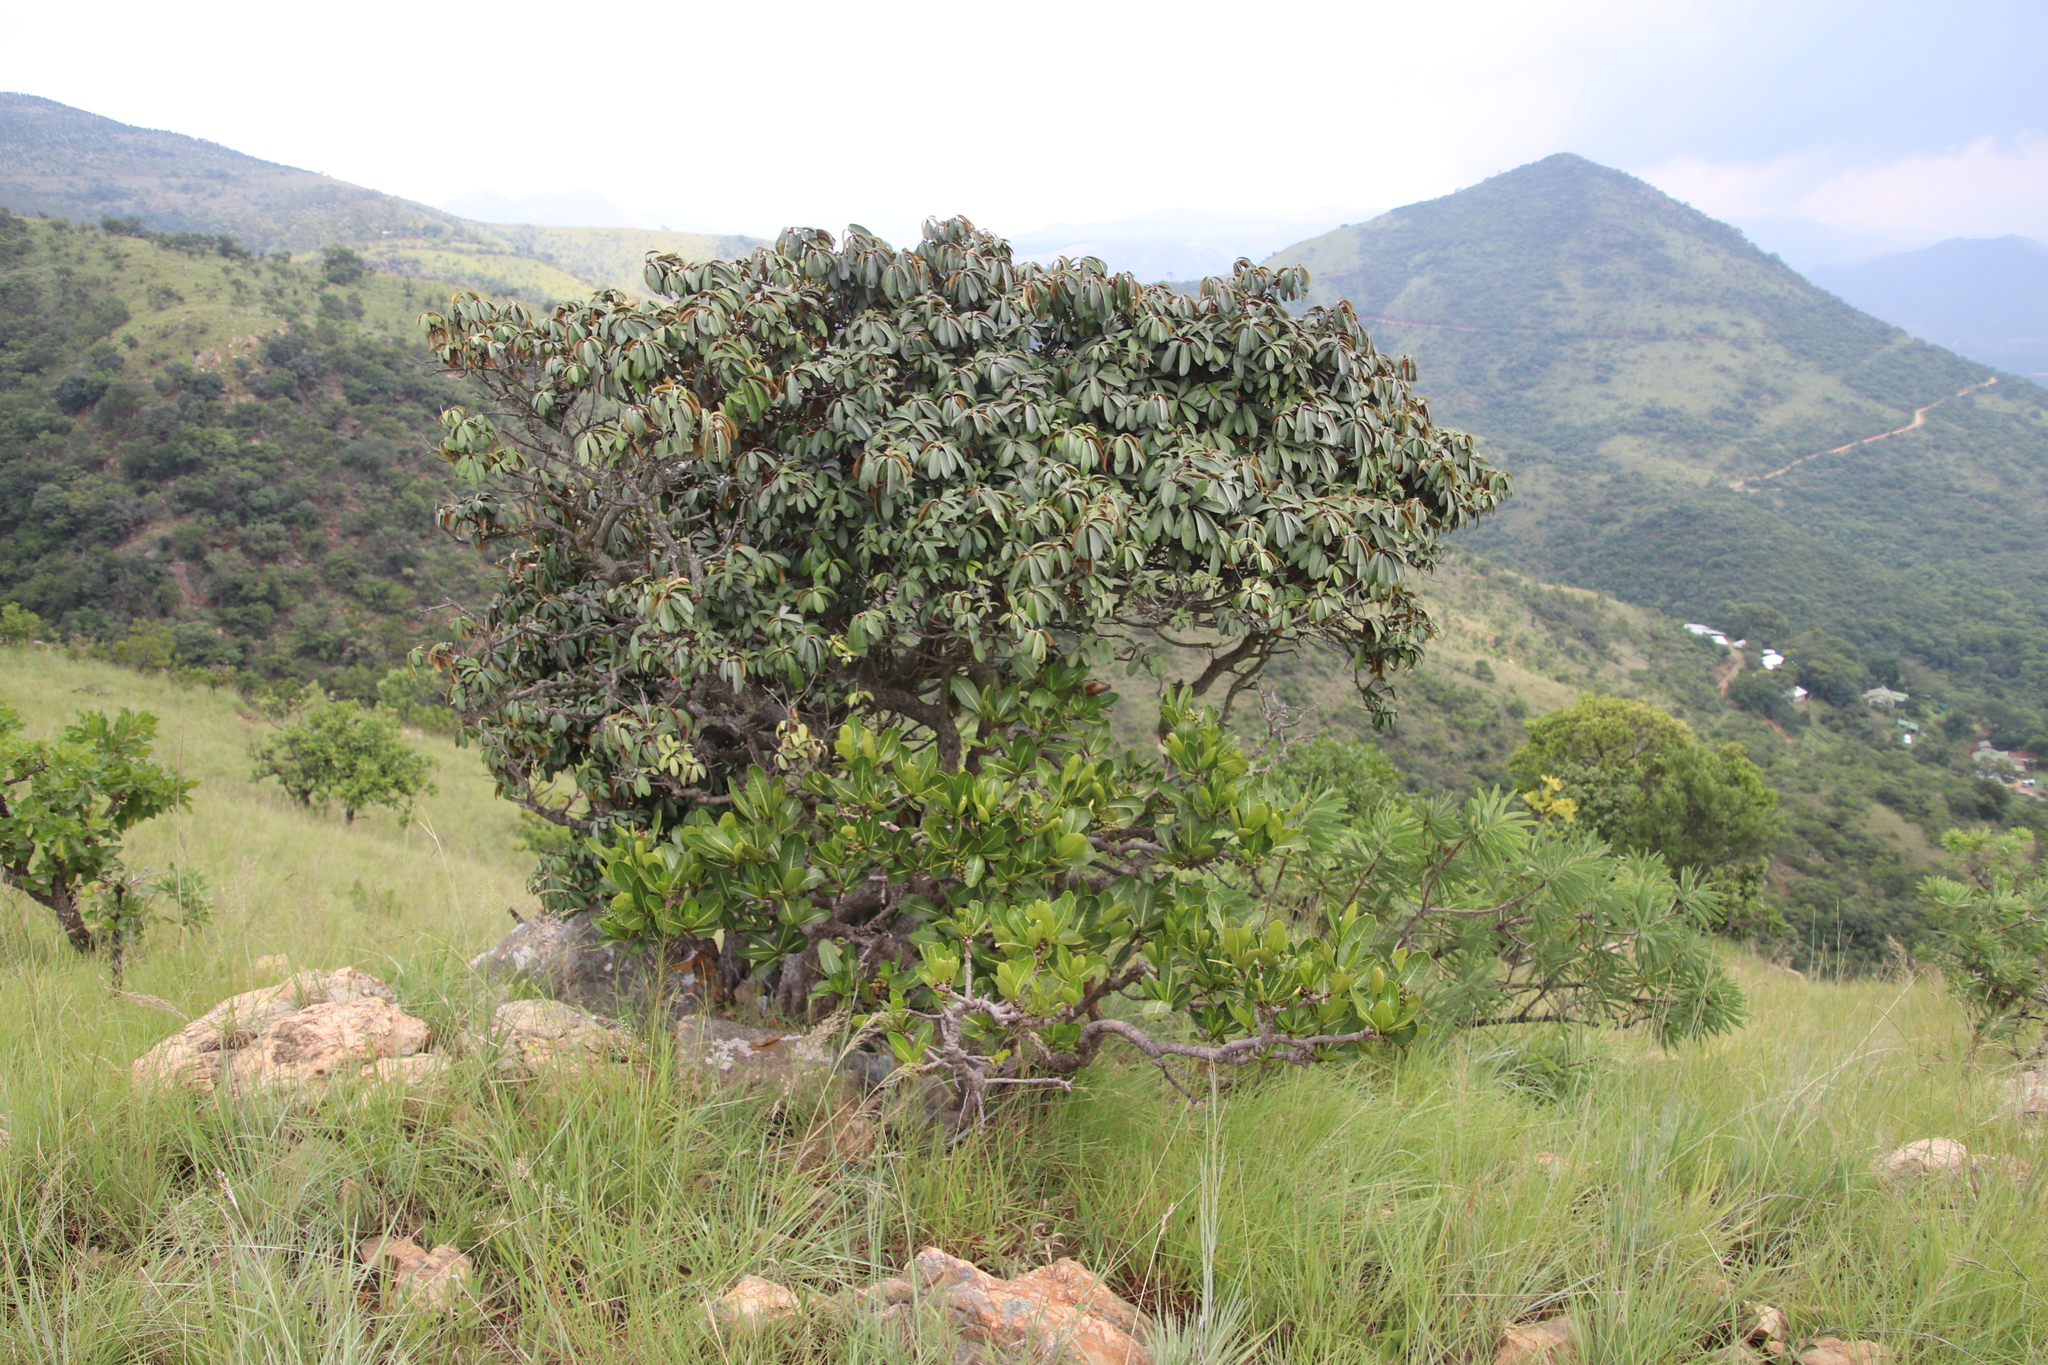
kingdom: Plantae
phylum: Tracheophyta
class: Magnoliopsida
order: Gentianales
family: Rubiaceae
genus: Psychotria
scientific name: Psychotria
